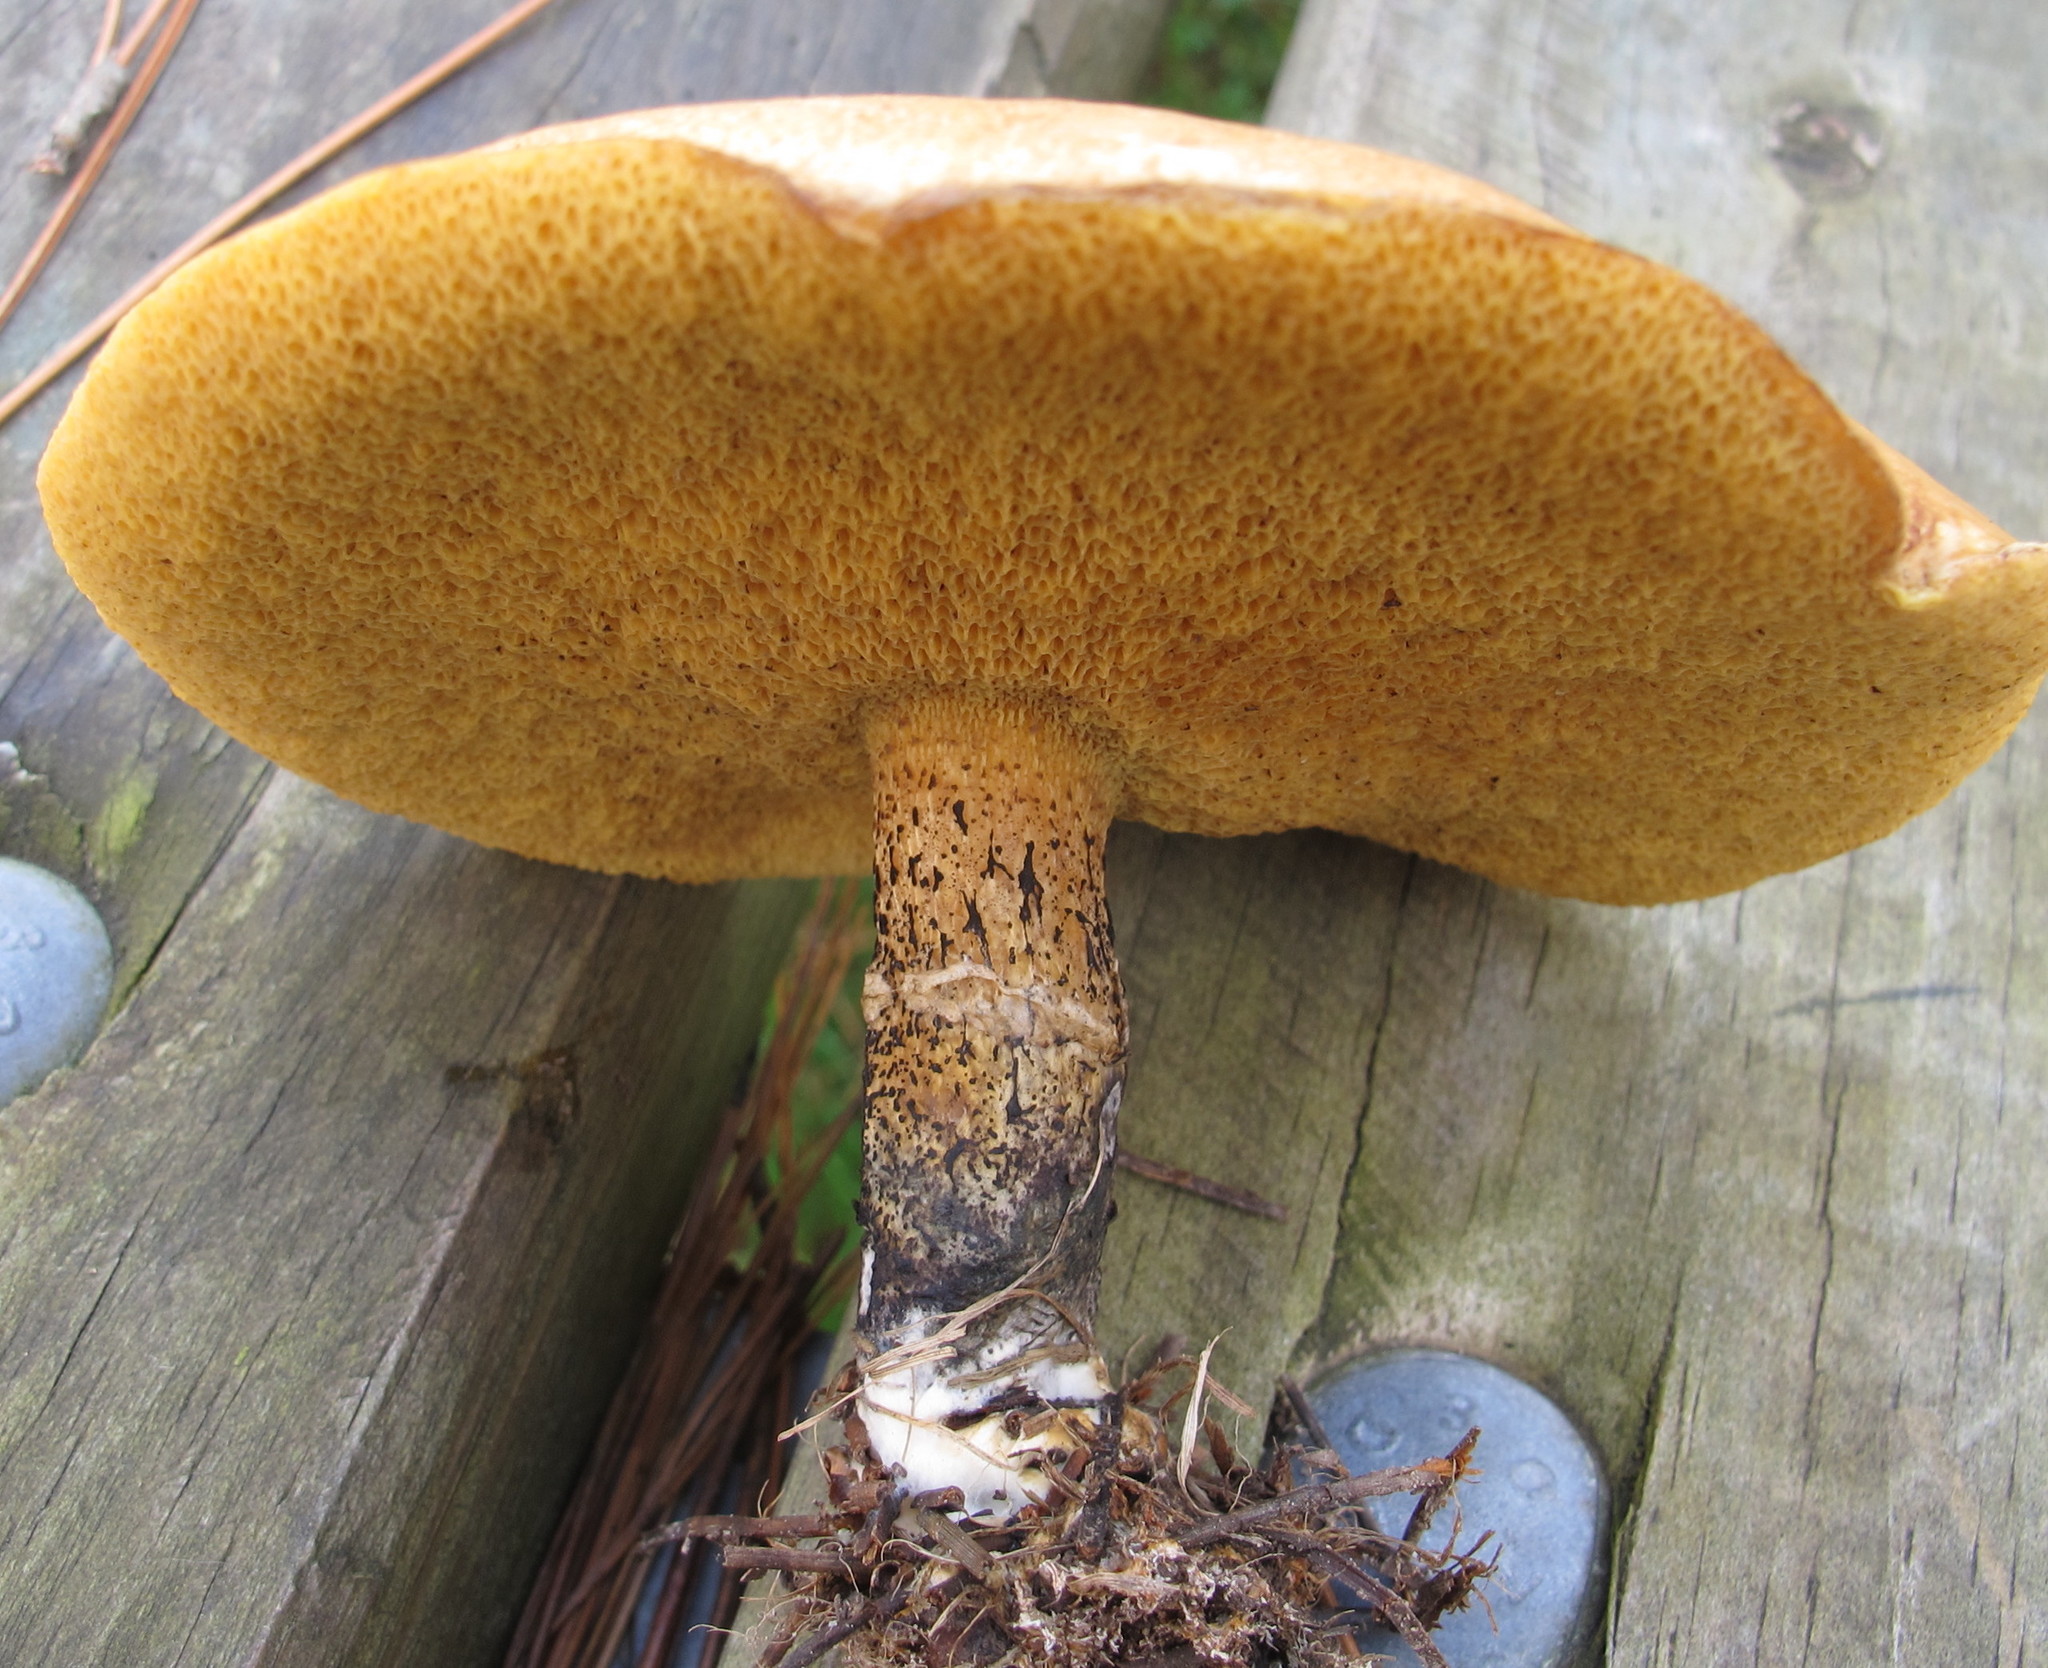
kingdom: Fungi
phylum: Basidiomycota
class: Agaricomycetes
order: Boletales
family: Suillaceae
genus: Suillus
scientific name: Suillus acidus
